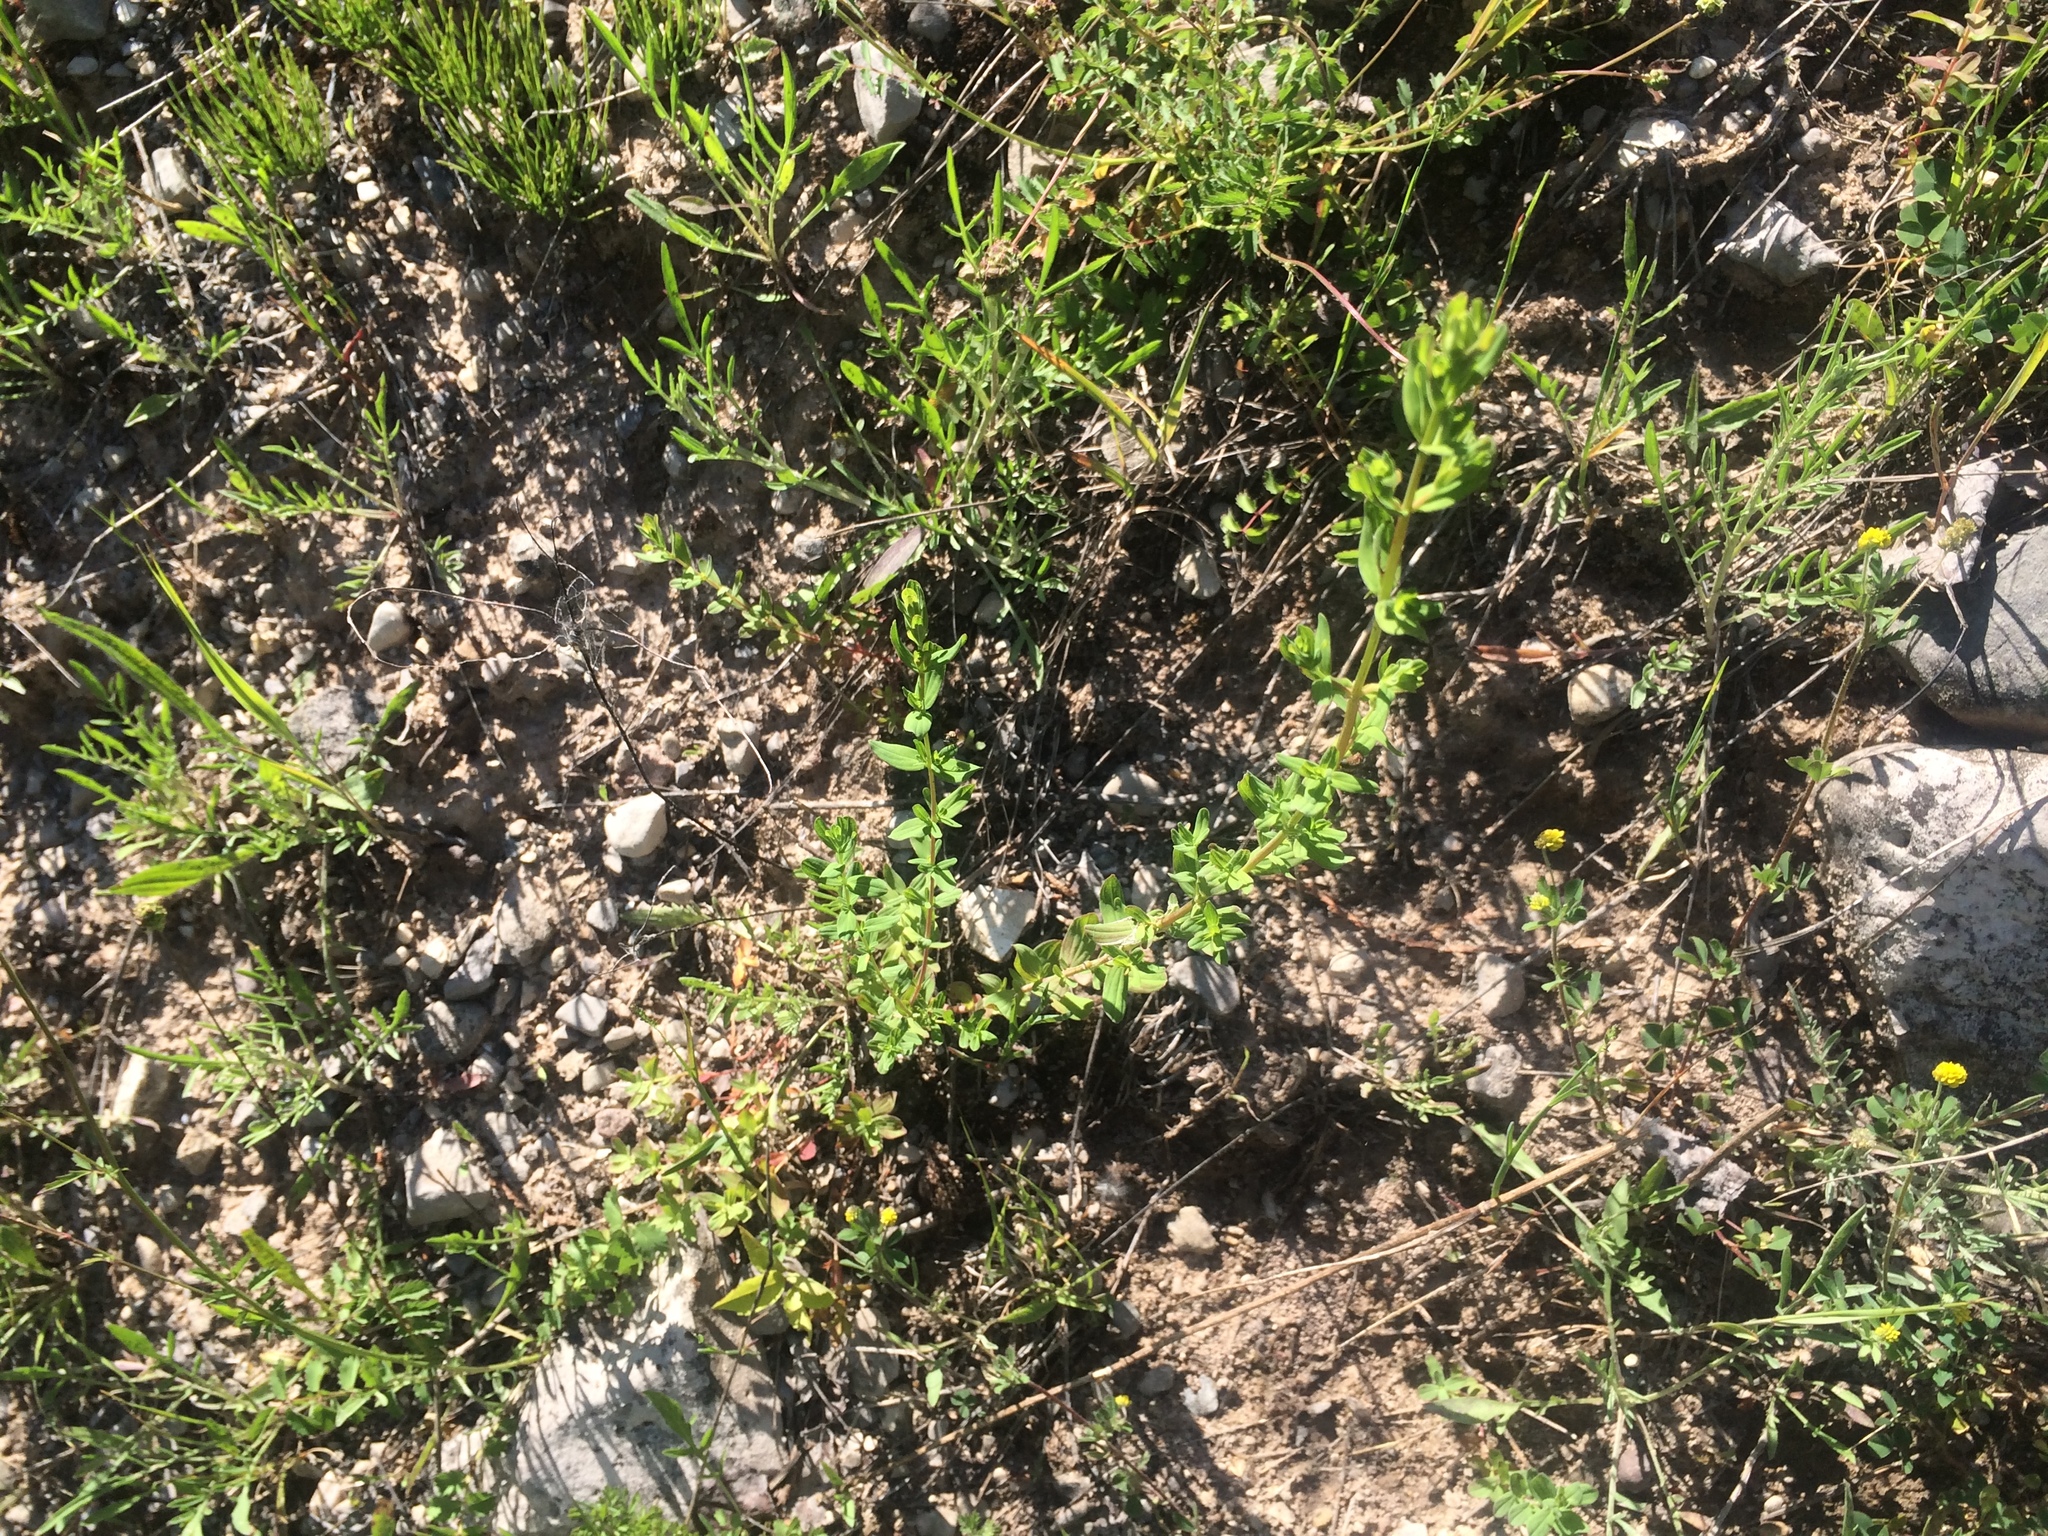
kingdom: Plantae
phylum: Tracheophyta
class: Magnoliopsida
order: Malpighiales
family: Hypericaceae
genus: Hypericum
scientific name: Hypericum perforatum
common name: Common st. johnswort
